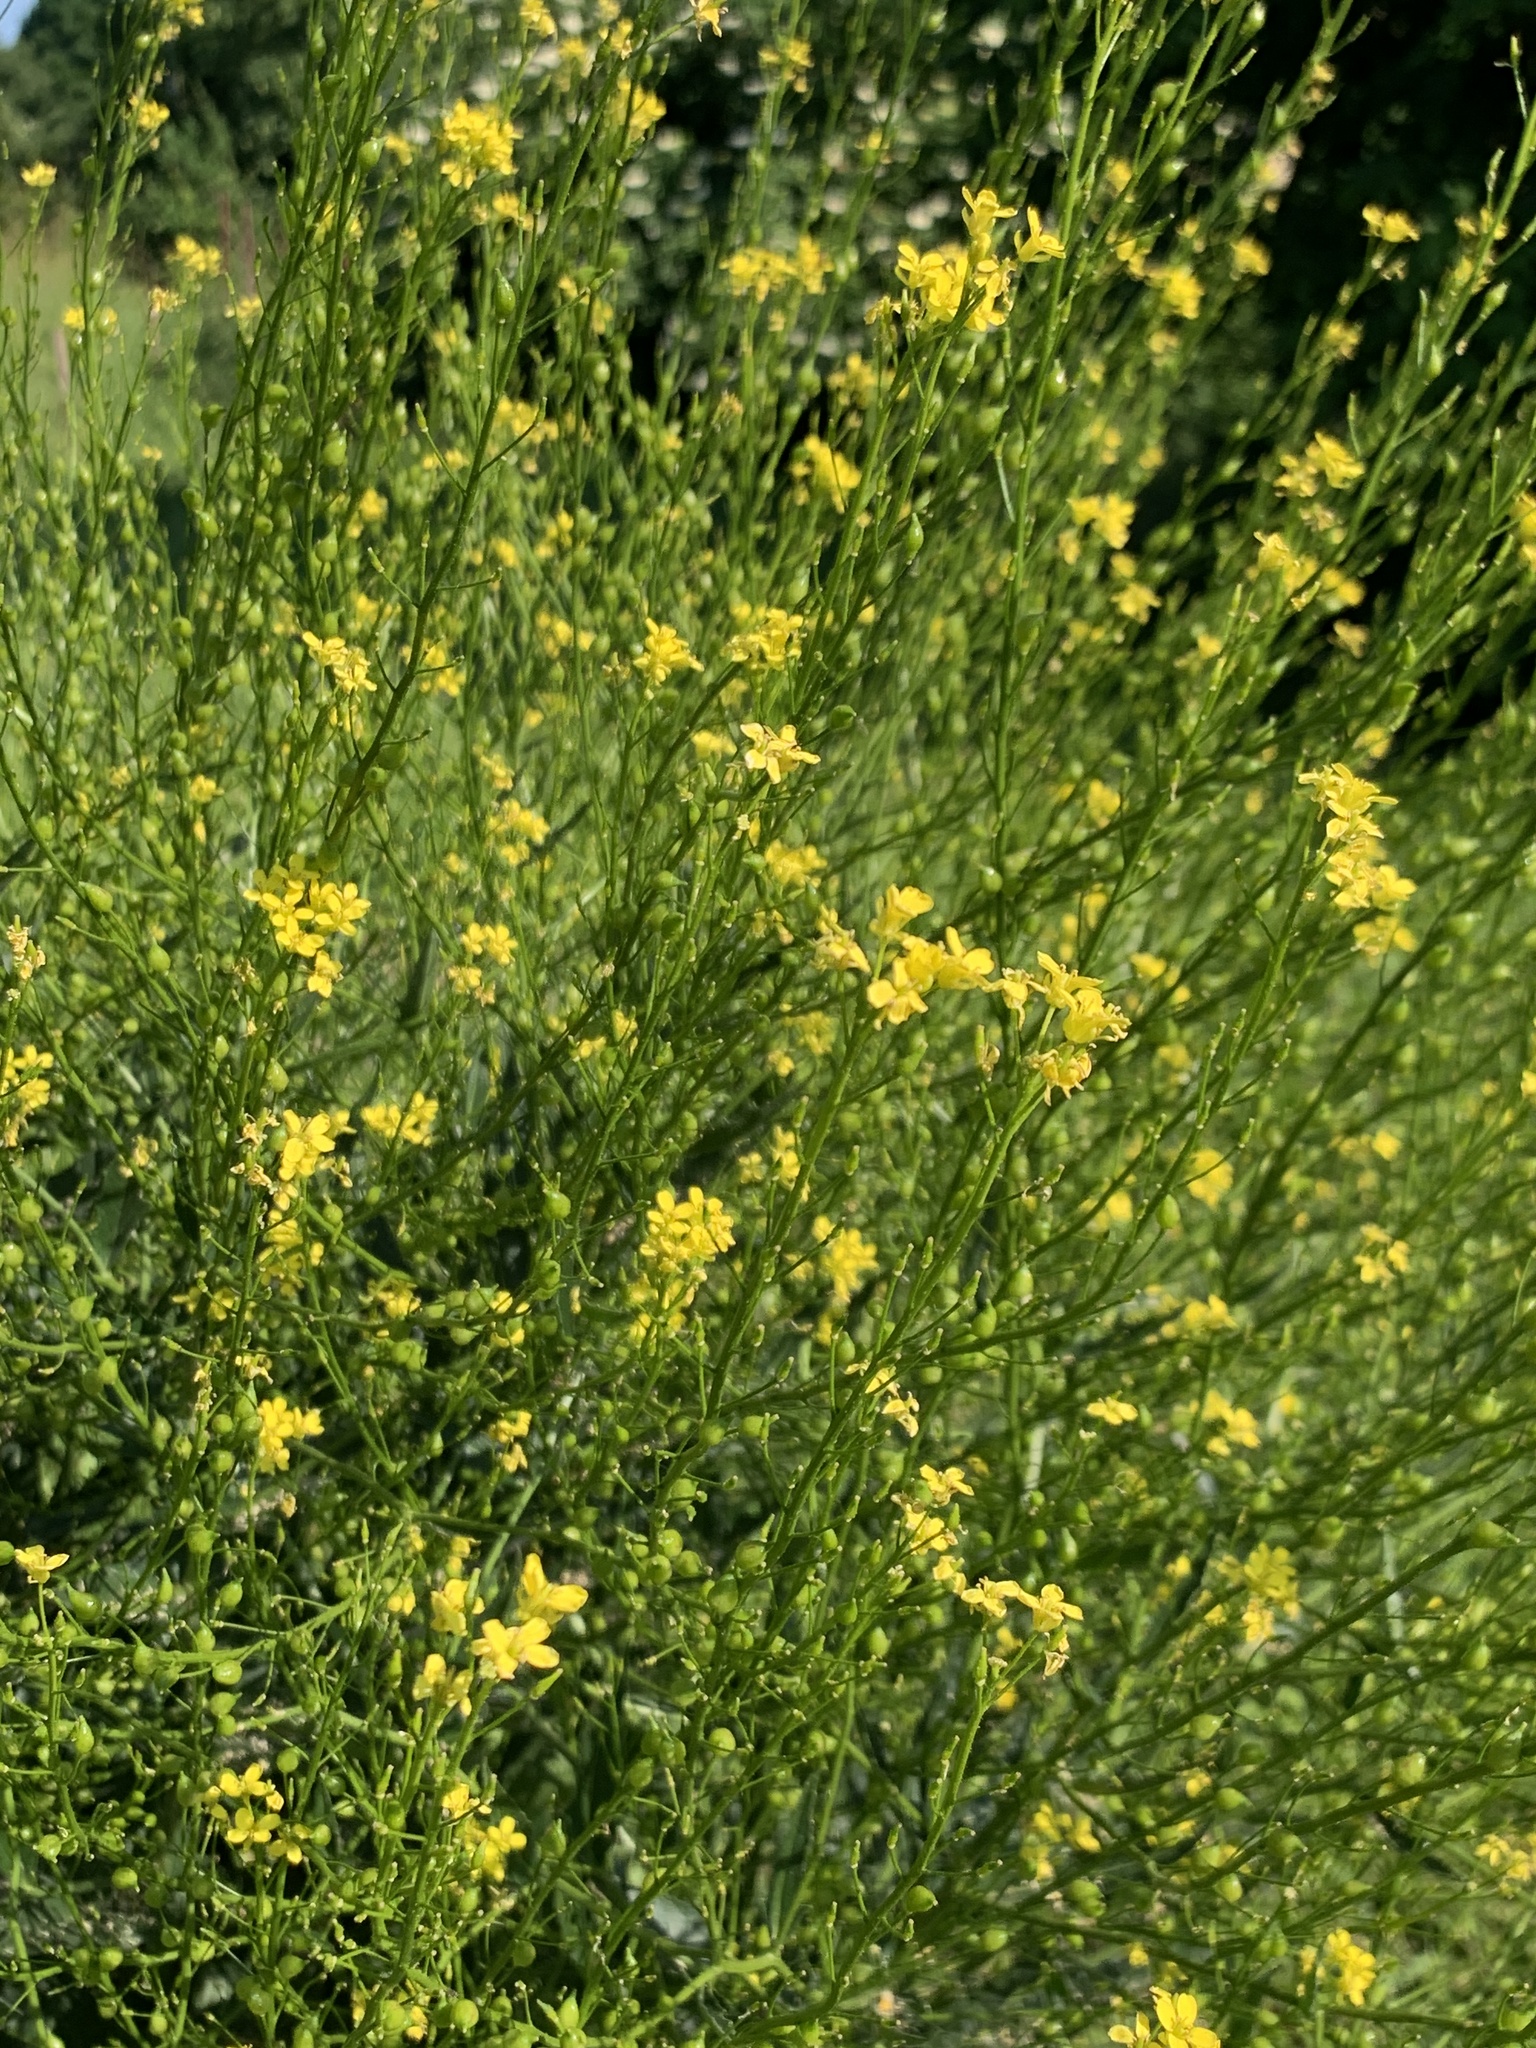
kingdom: Plantae
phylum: Tracheophyta
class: Magnoliopsida
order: Brassicales
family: Brassicaceae
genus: Bunias
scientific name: Bunias orientalis
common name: Warty-cabbage
